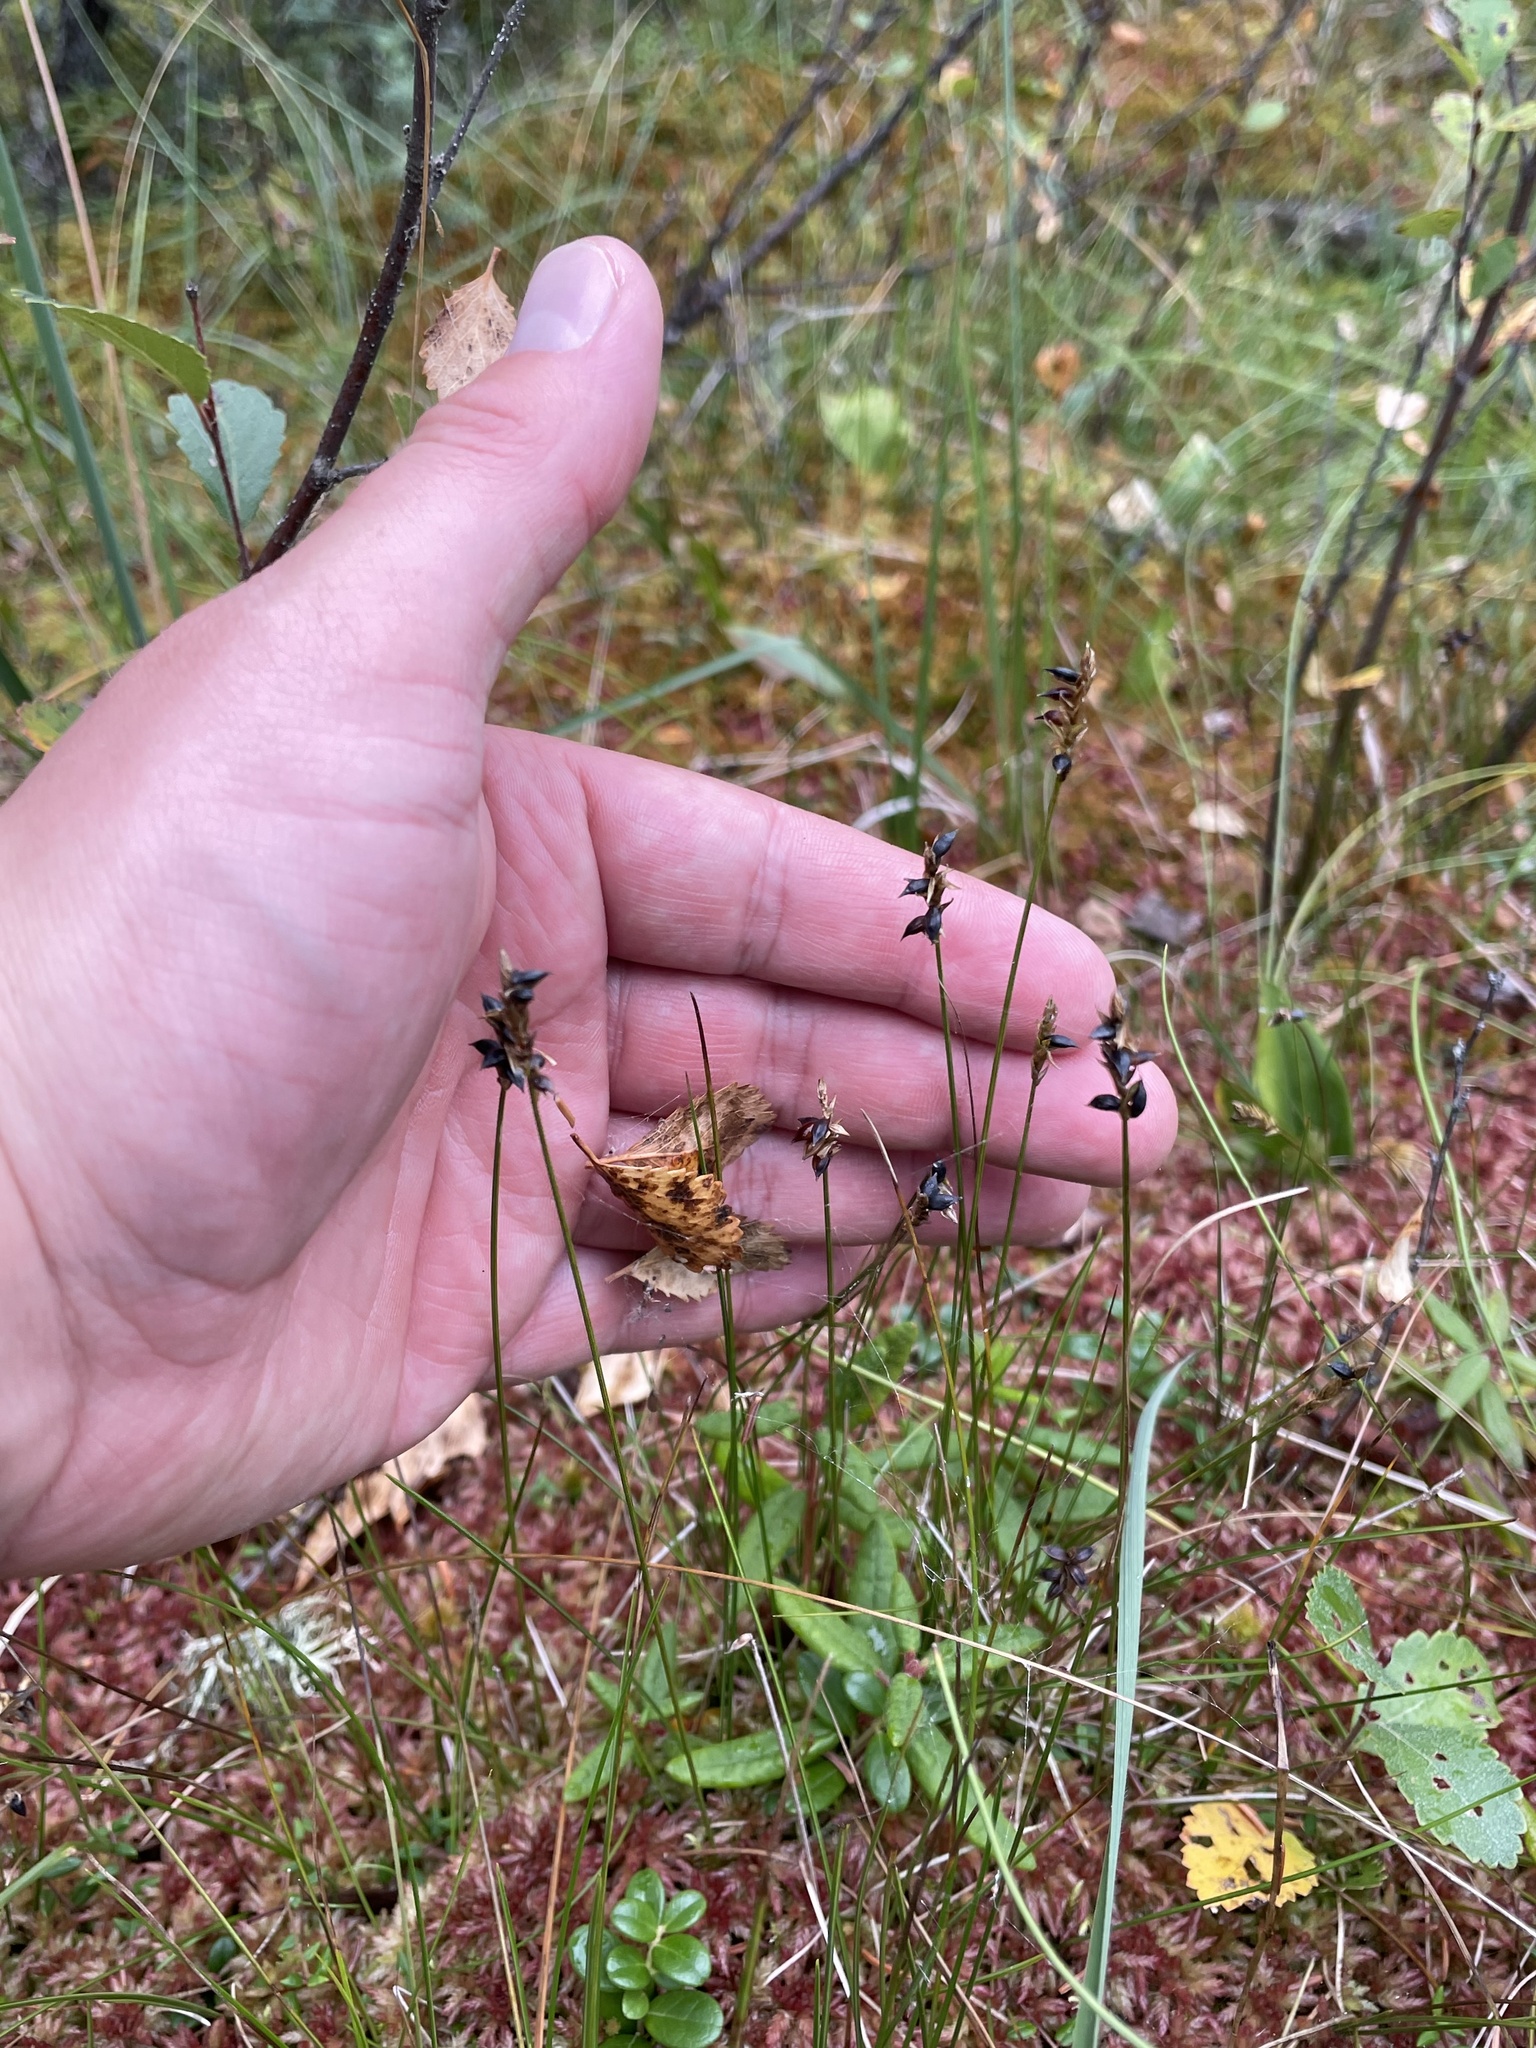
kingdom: Plantae
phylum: Tracheophyta
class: Liliopsida
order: Poales
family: Cyperaceae
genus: Carex
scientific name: Carex alascana
